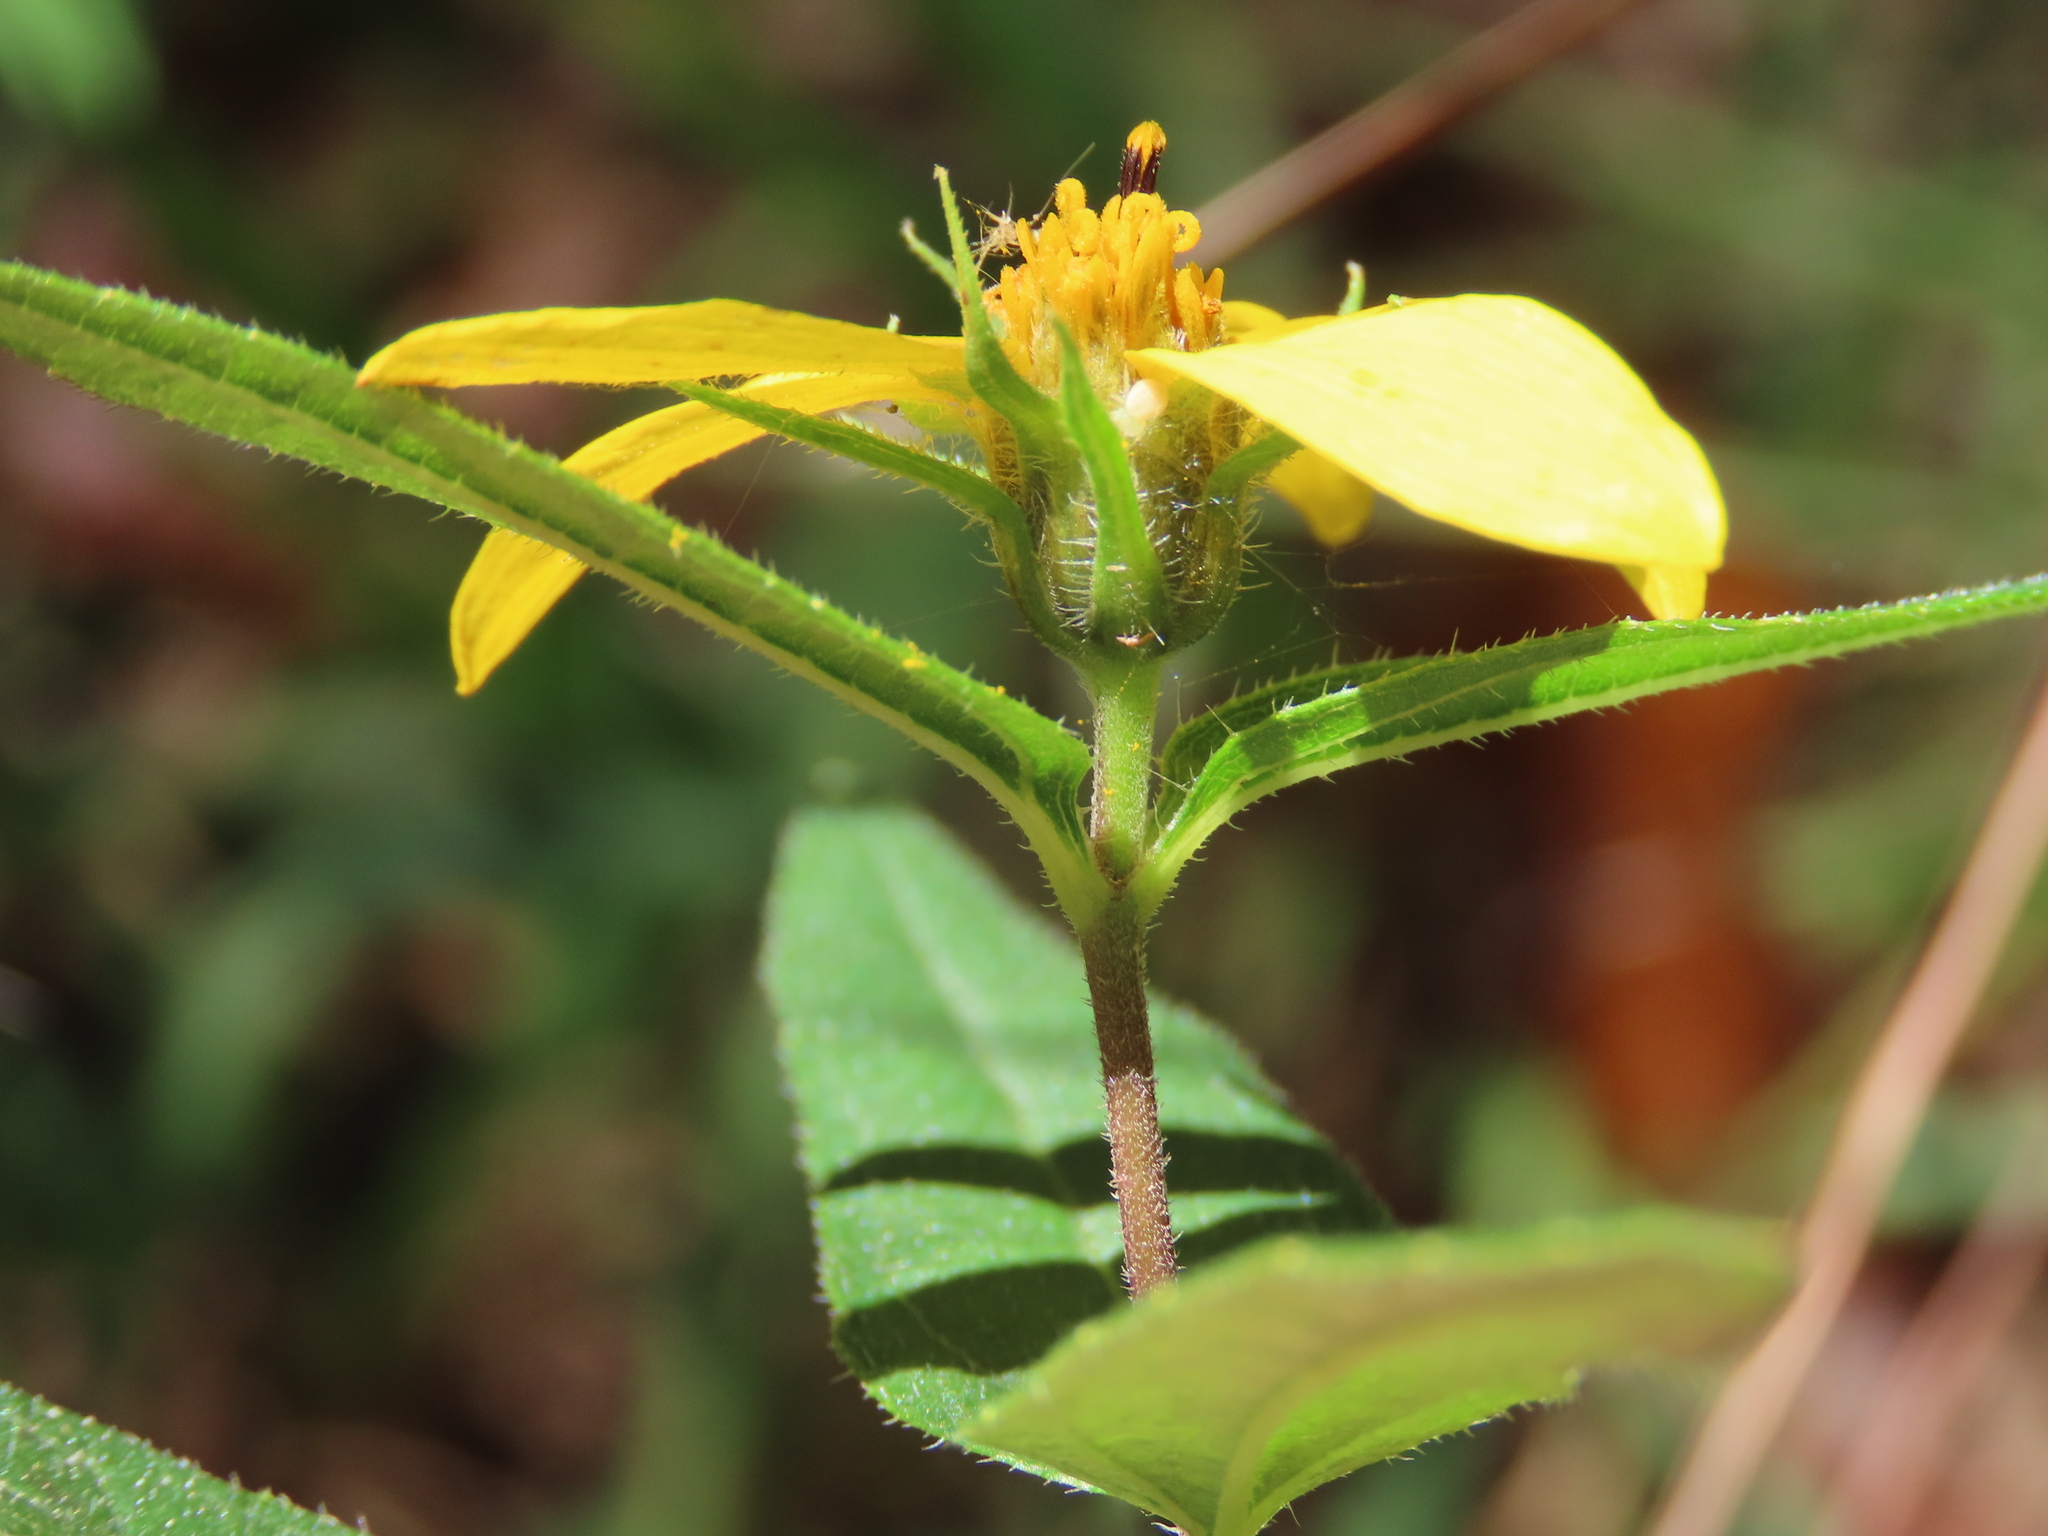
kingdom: Plantae
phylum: Tracheophyta
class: Magnoliopsida
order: Asterales
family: Asteraceae
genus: Helianthus
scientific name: Helianthus divaricatus
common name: Divergent sunflower
